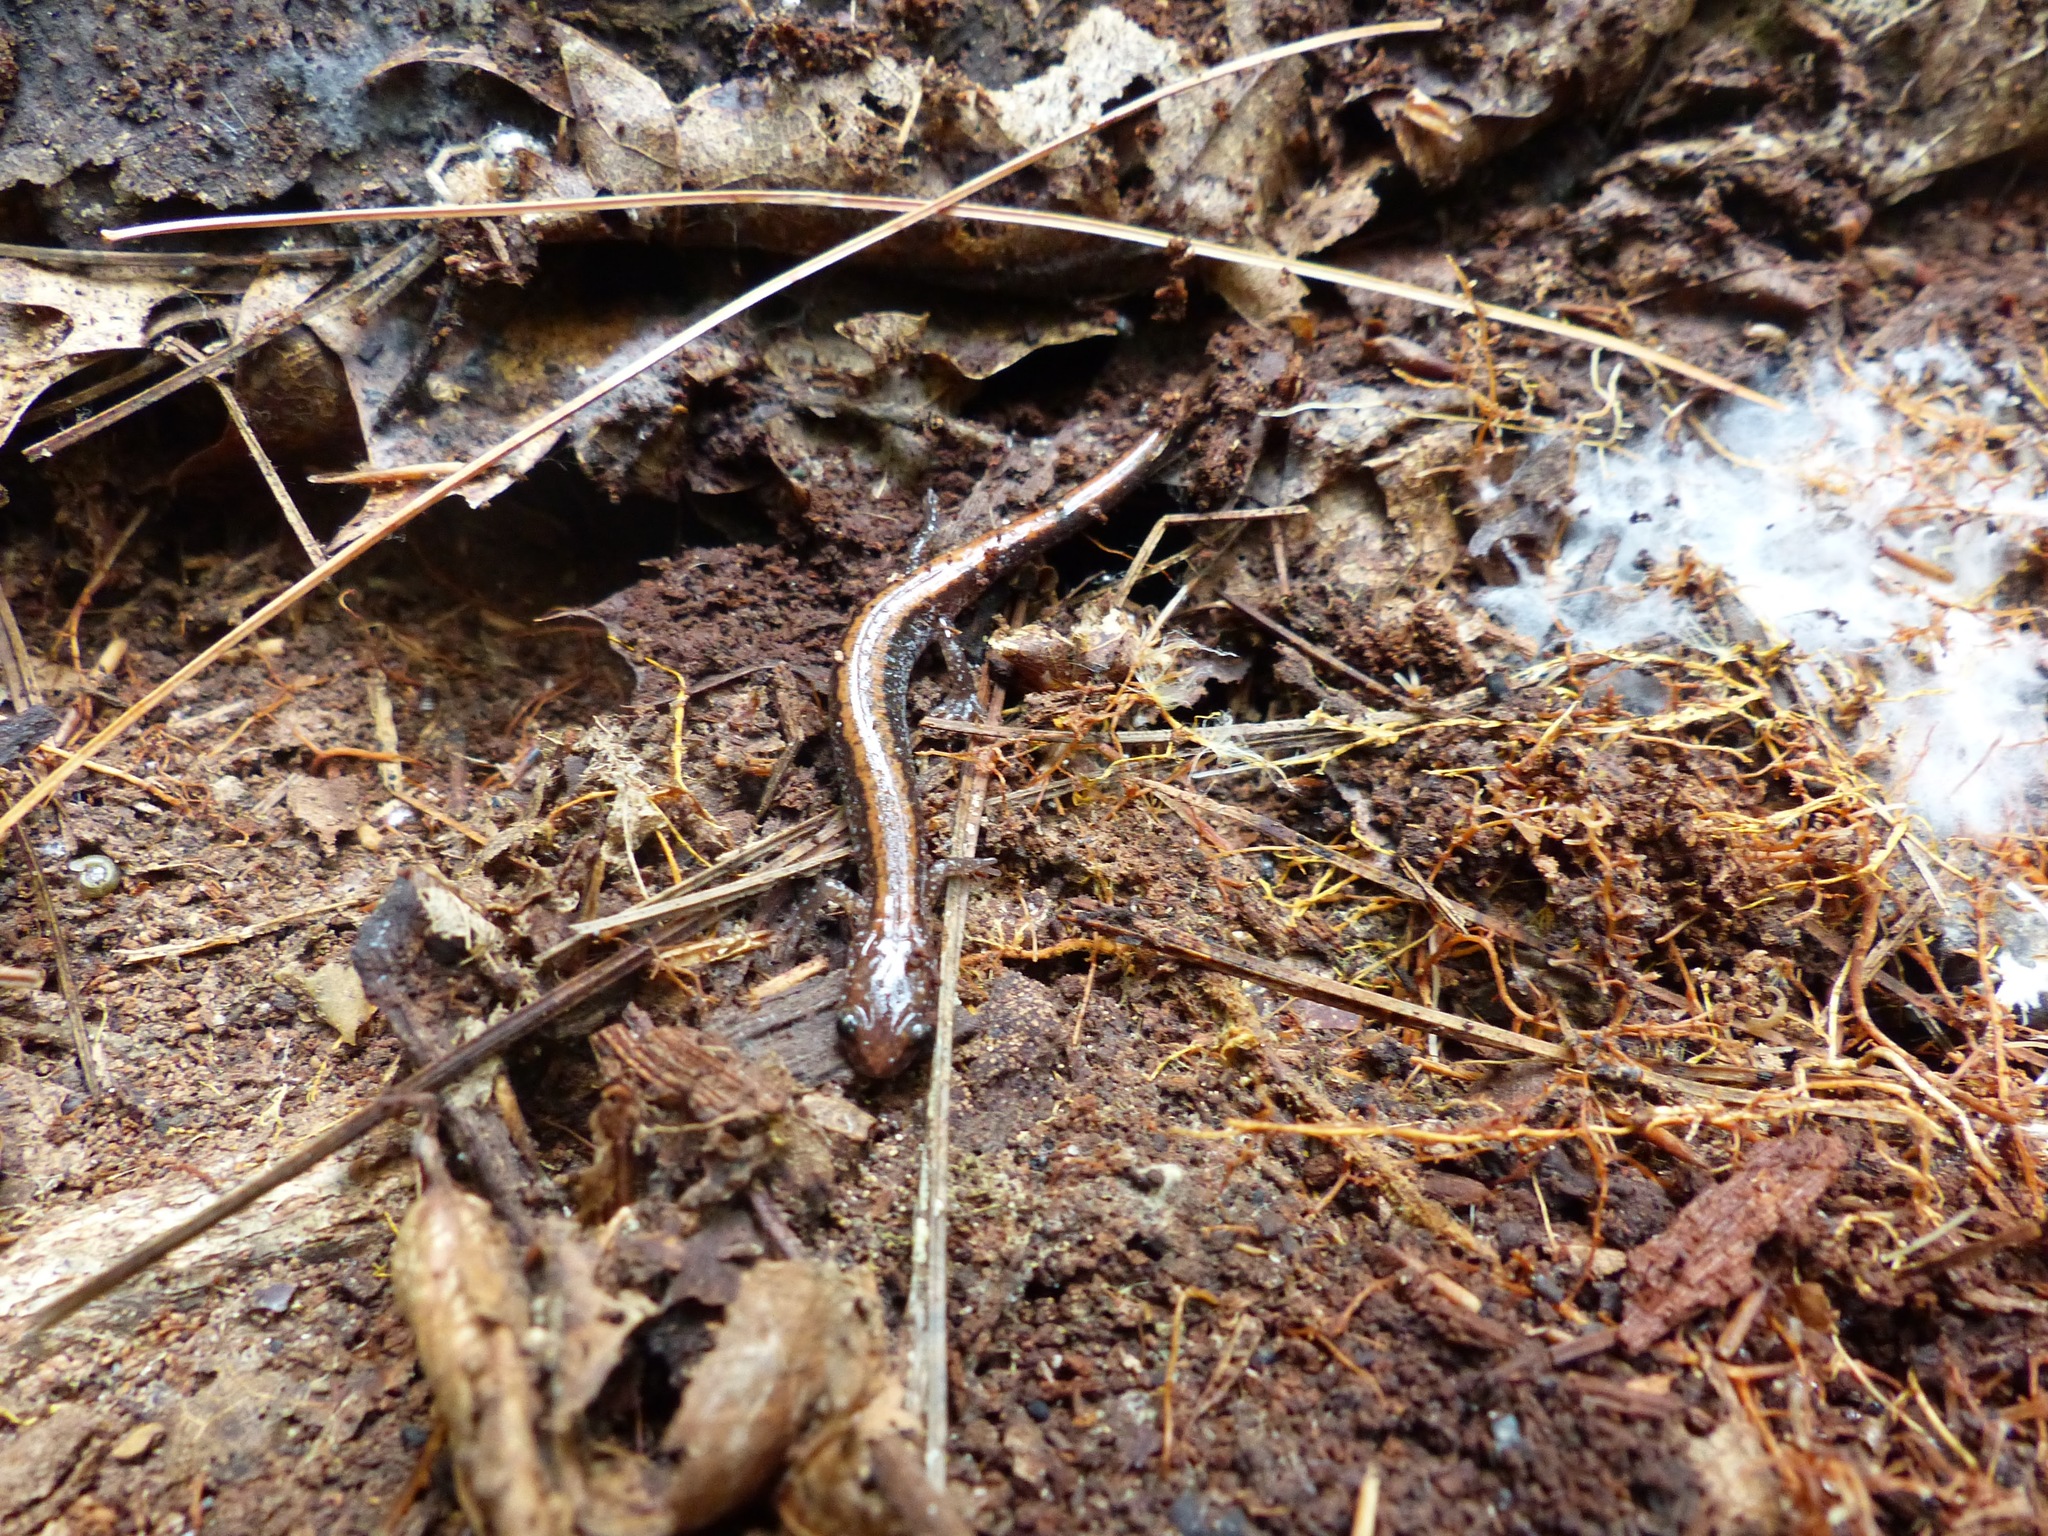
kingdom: Animalia
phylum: Chordata
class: Amphibia
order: Caudata
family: Plethodontidae
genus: Plethodon
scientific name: Plethodon cinereus
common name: Redback salamander
